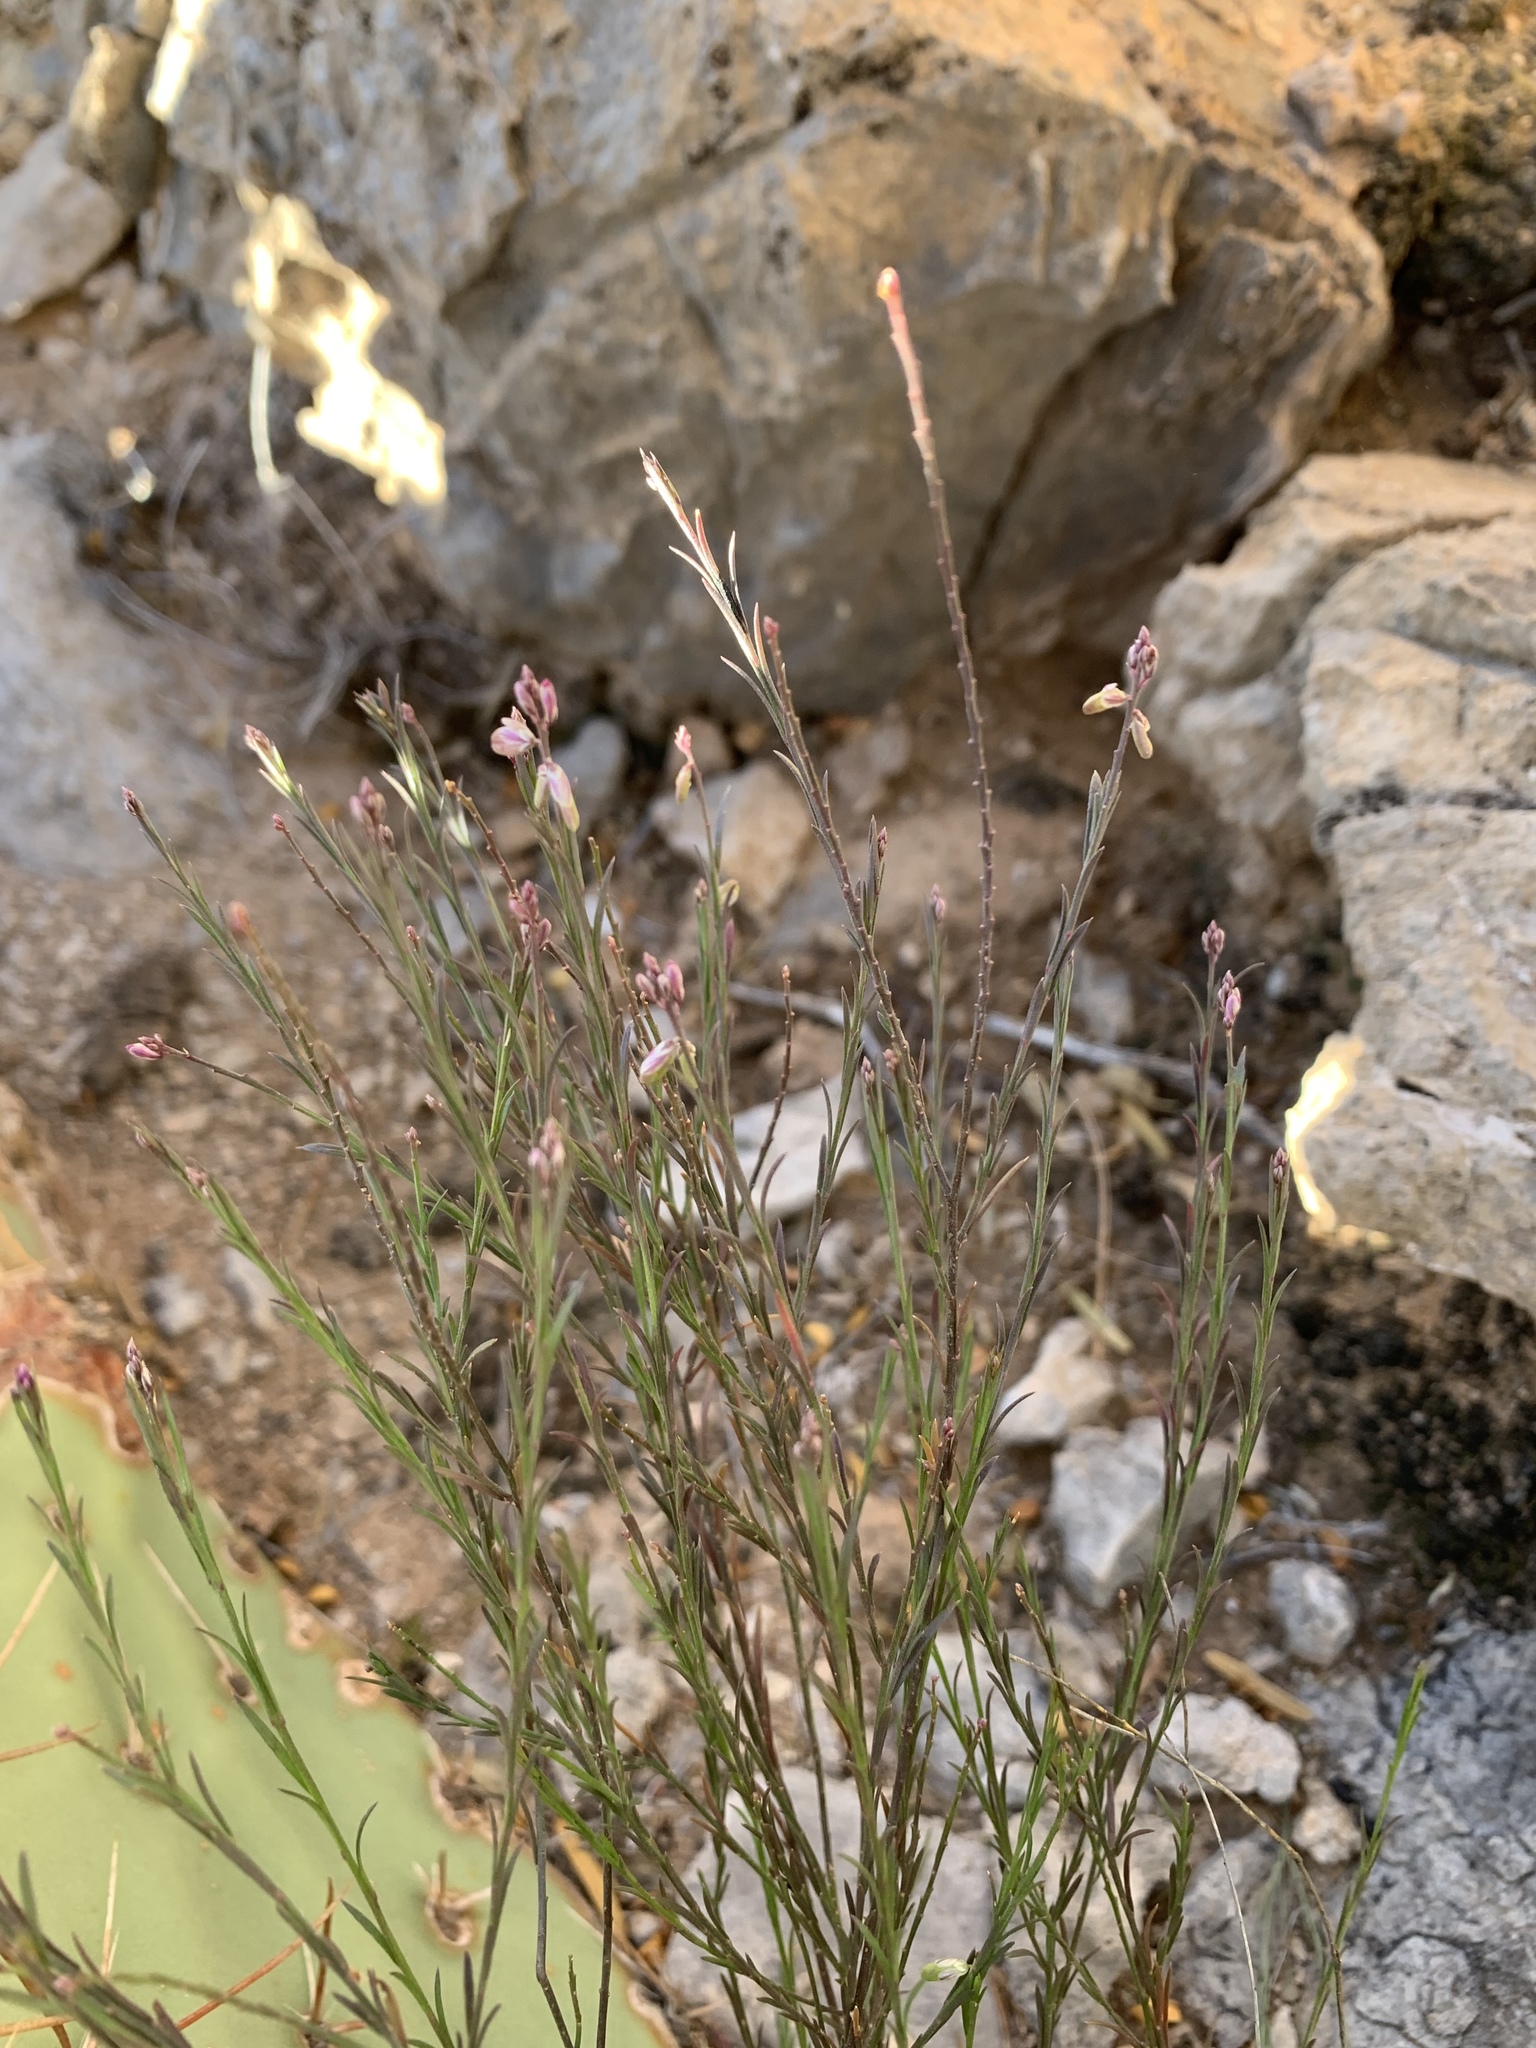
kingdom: Plantae
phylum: Tracheophyta
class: Magnoliopsida
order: Fabales
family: Polygalaceae
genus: Polygala
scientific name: Polygala scoparioides
